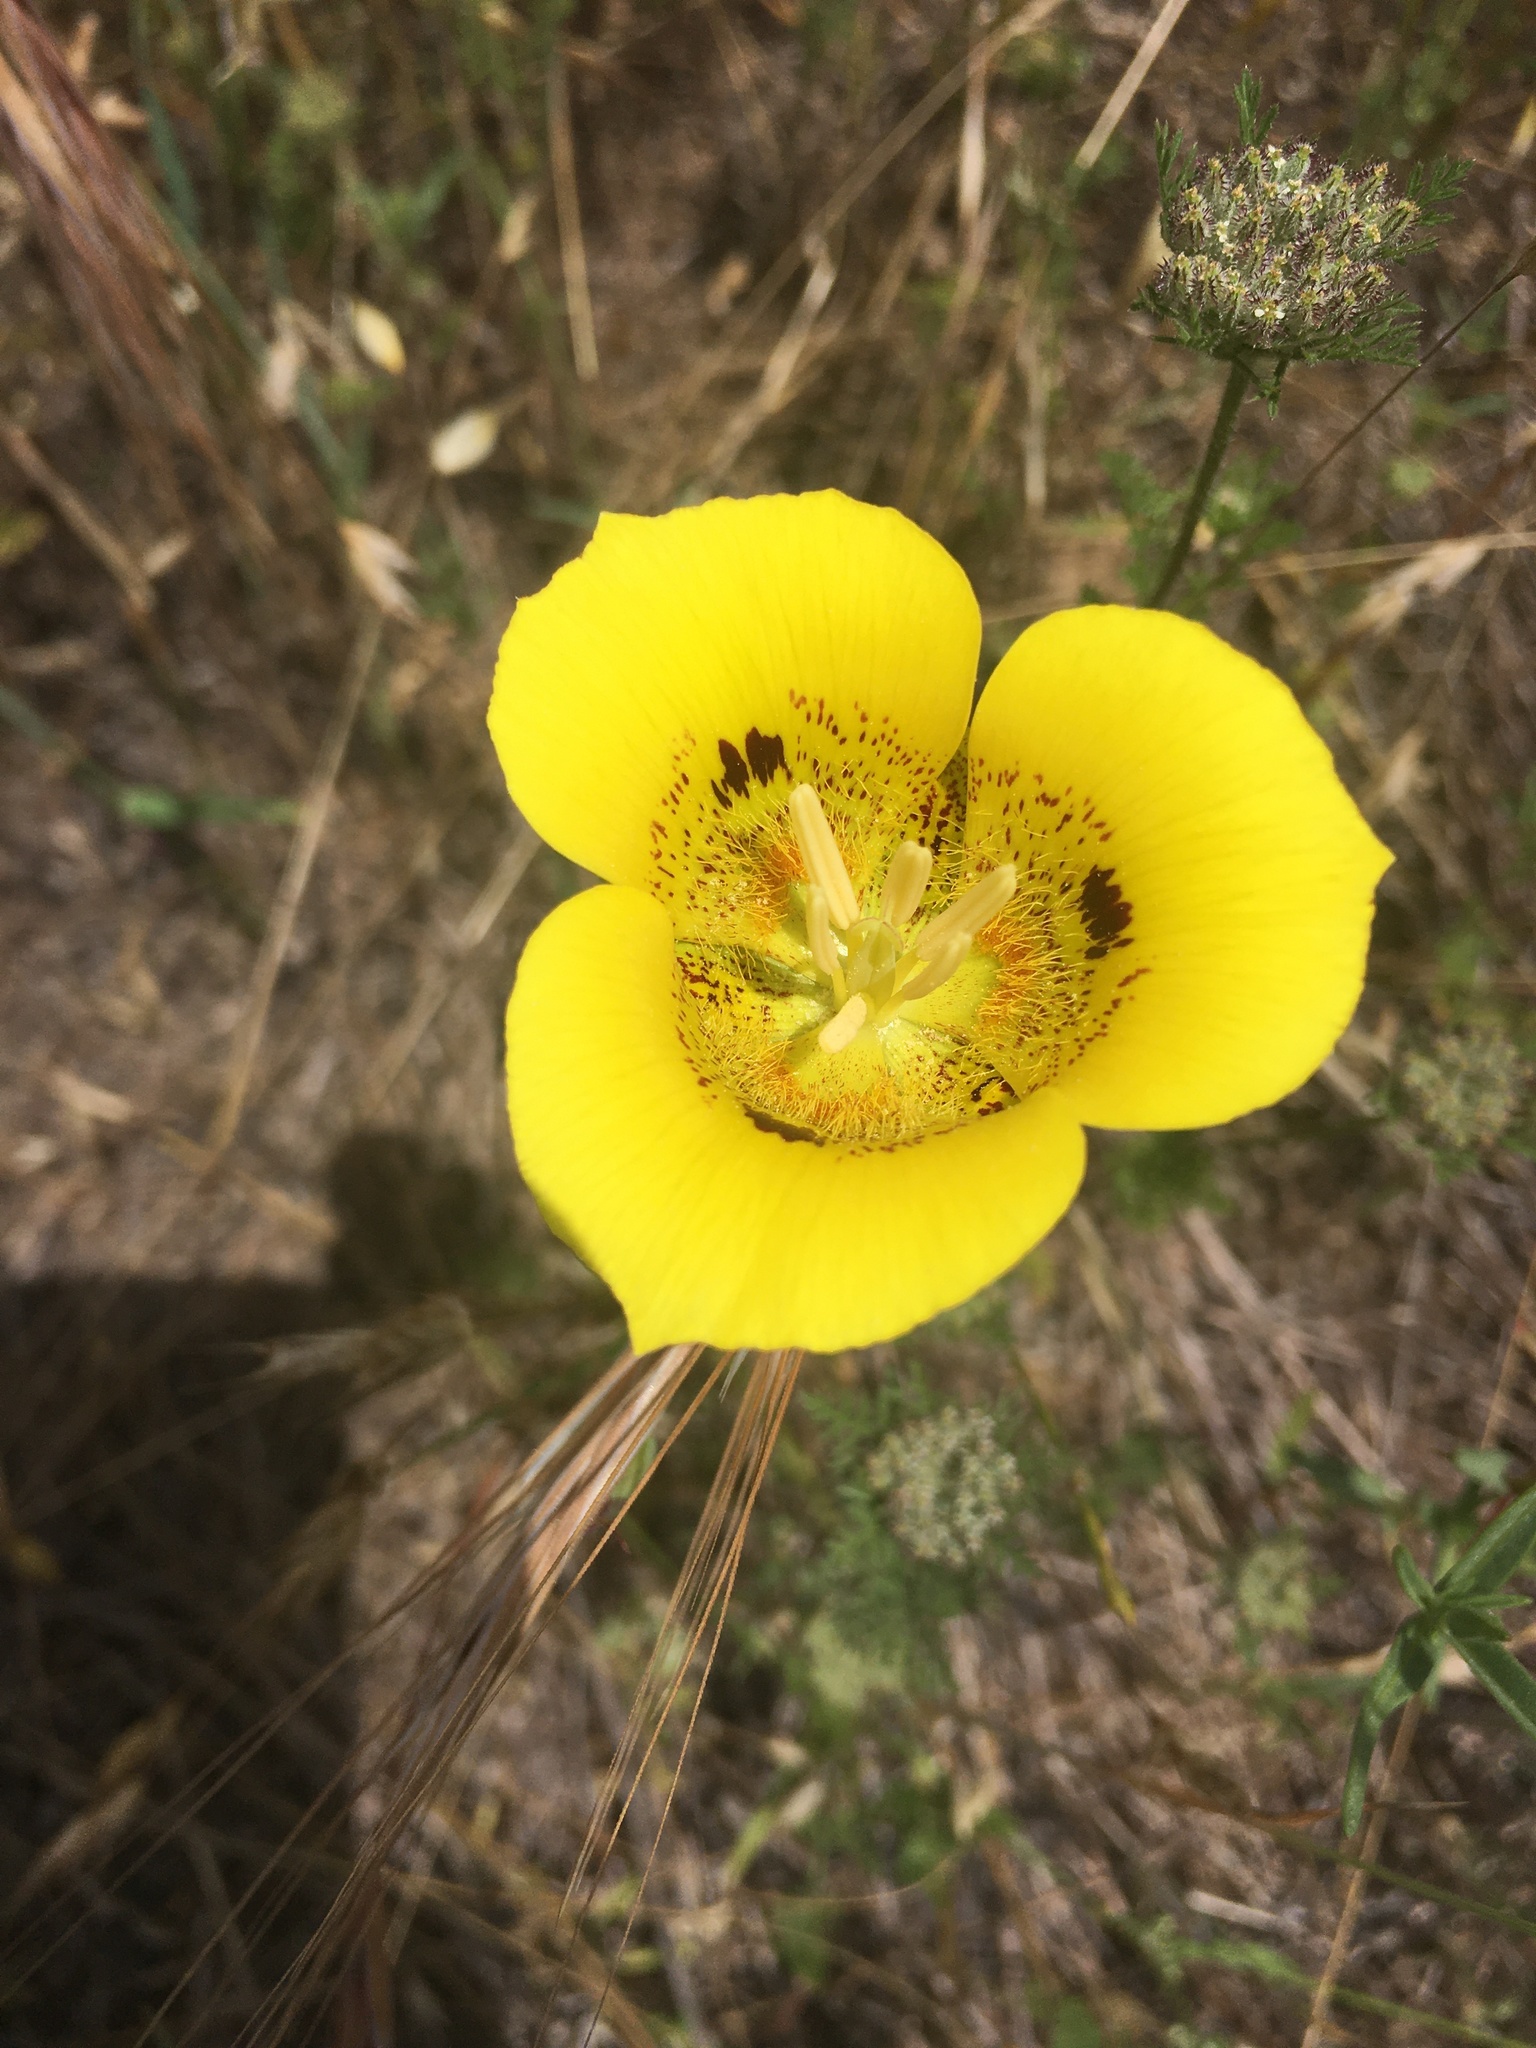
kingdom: Plantae
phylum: Tracheophyta
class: Liliopsida
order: Liliales
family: Liliaceae
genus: Calochortus
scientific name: Calochortus luteus
